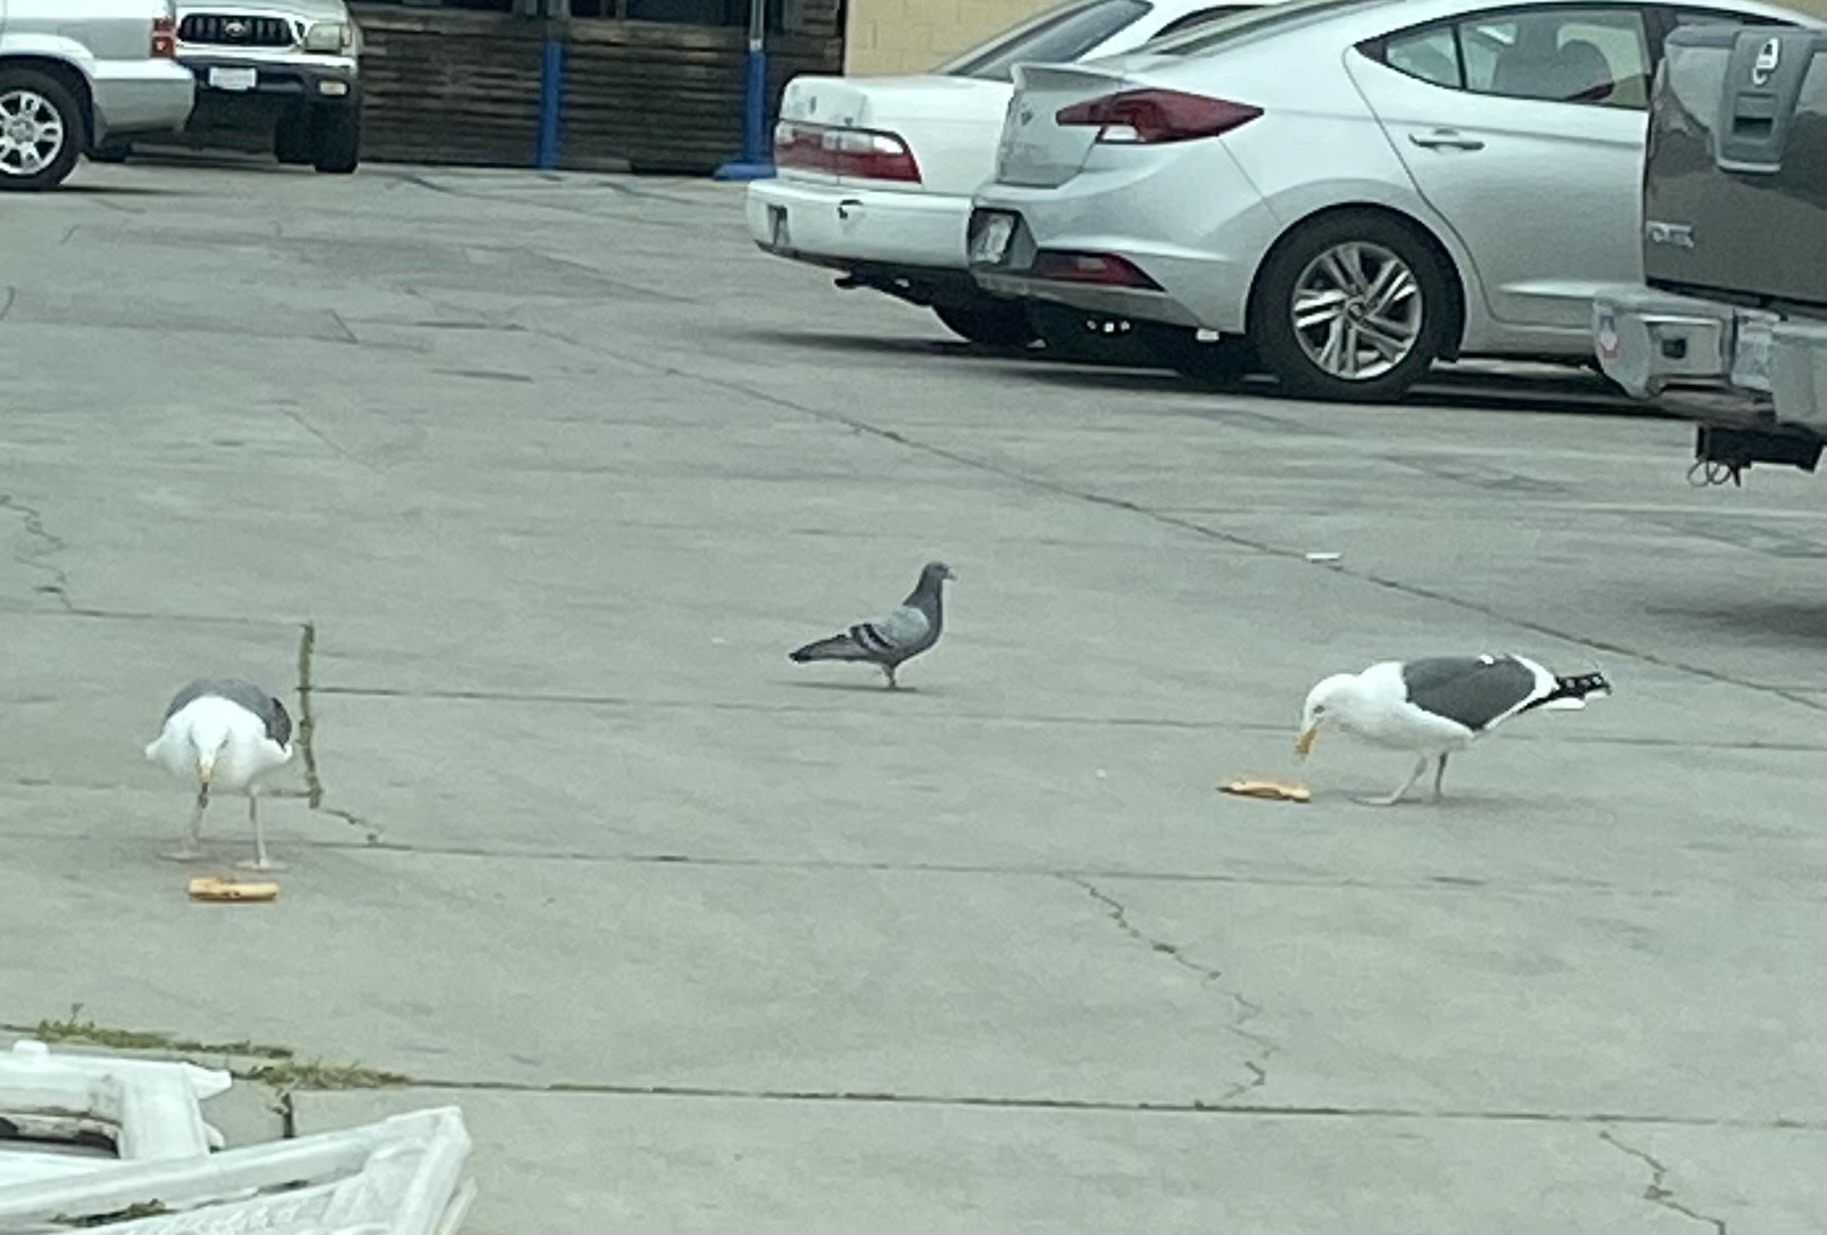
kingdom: Animalia
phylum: Chordata
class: Aves
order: Columbiformes
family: Columbidae
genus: Columba
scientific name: Columba livia
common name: Rock pigeon
